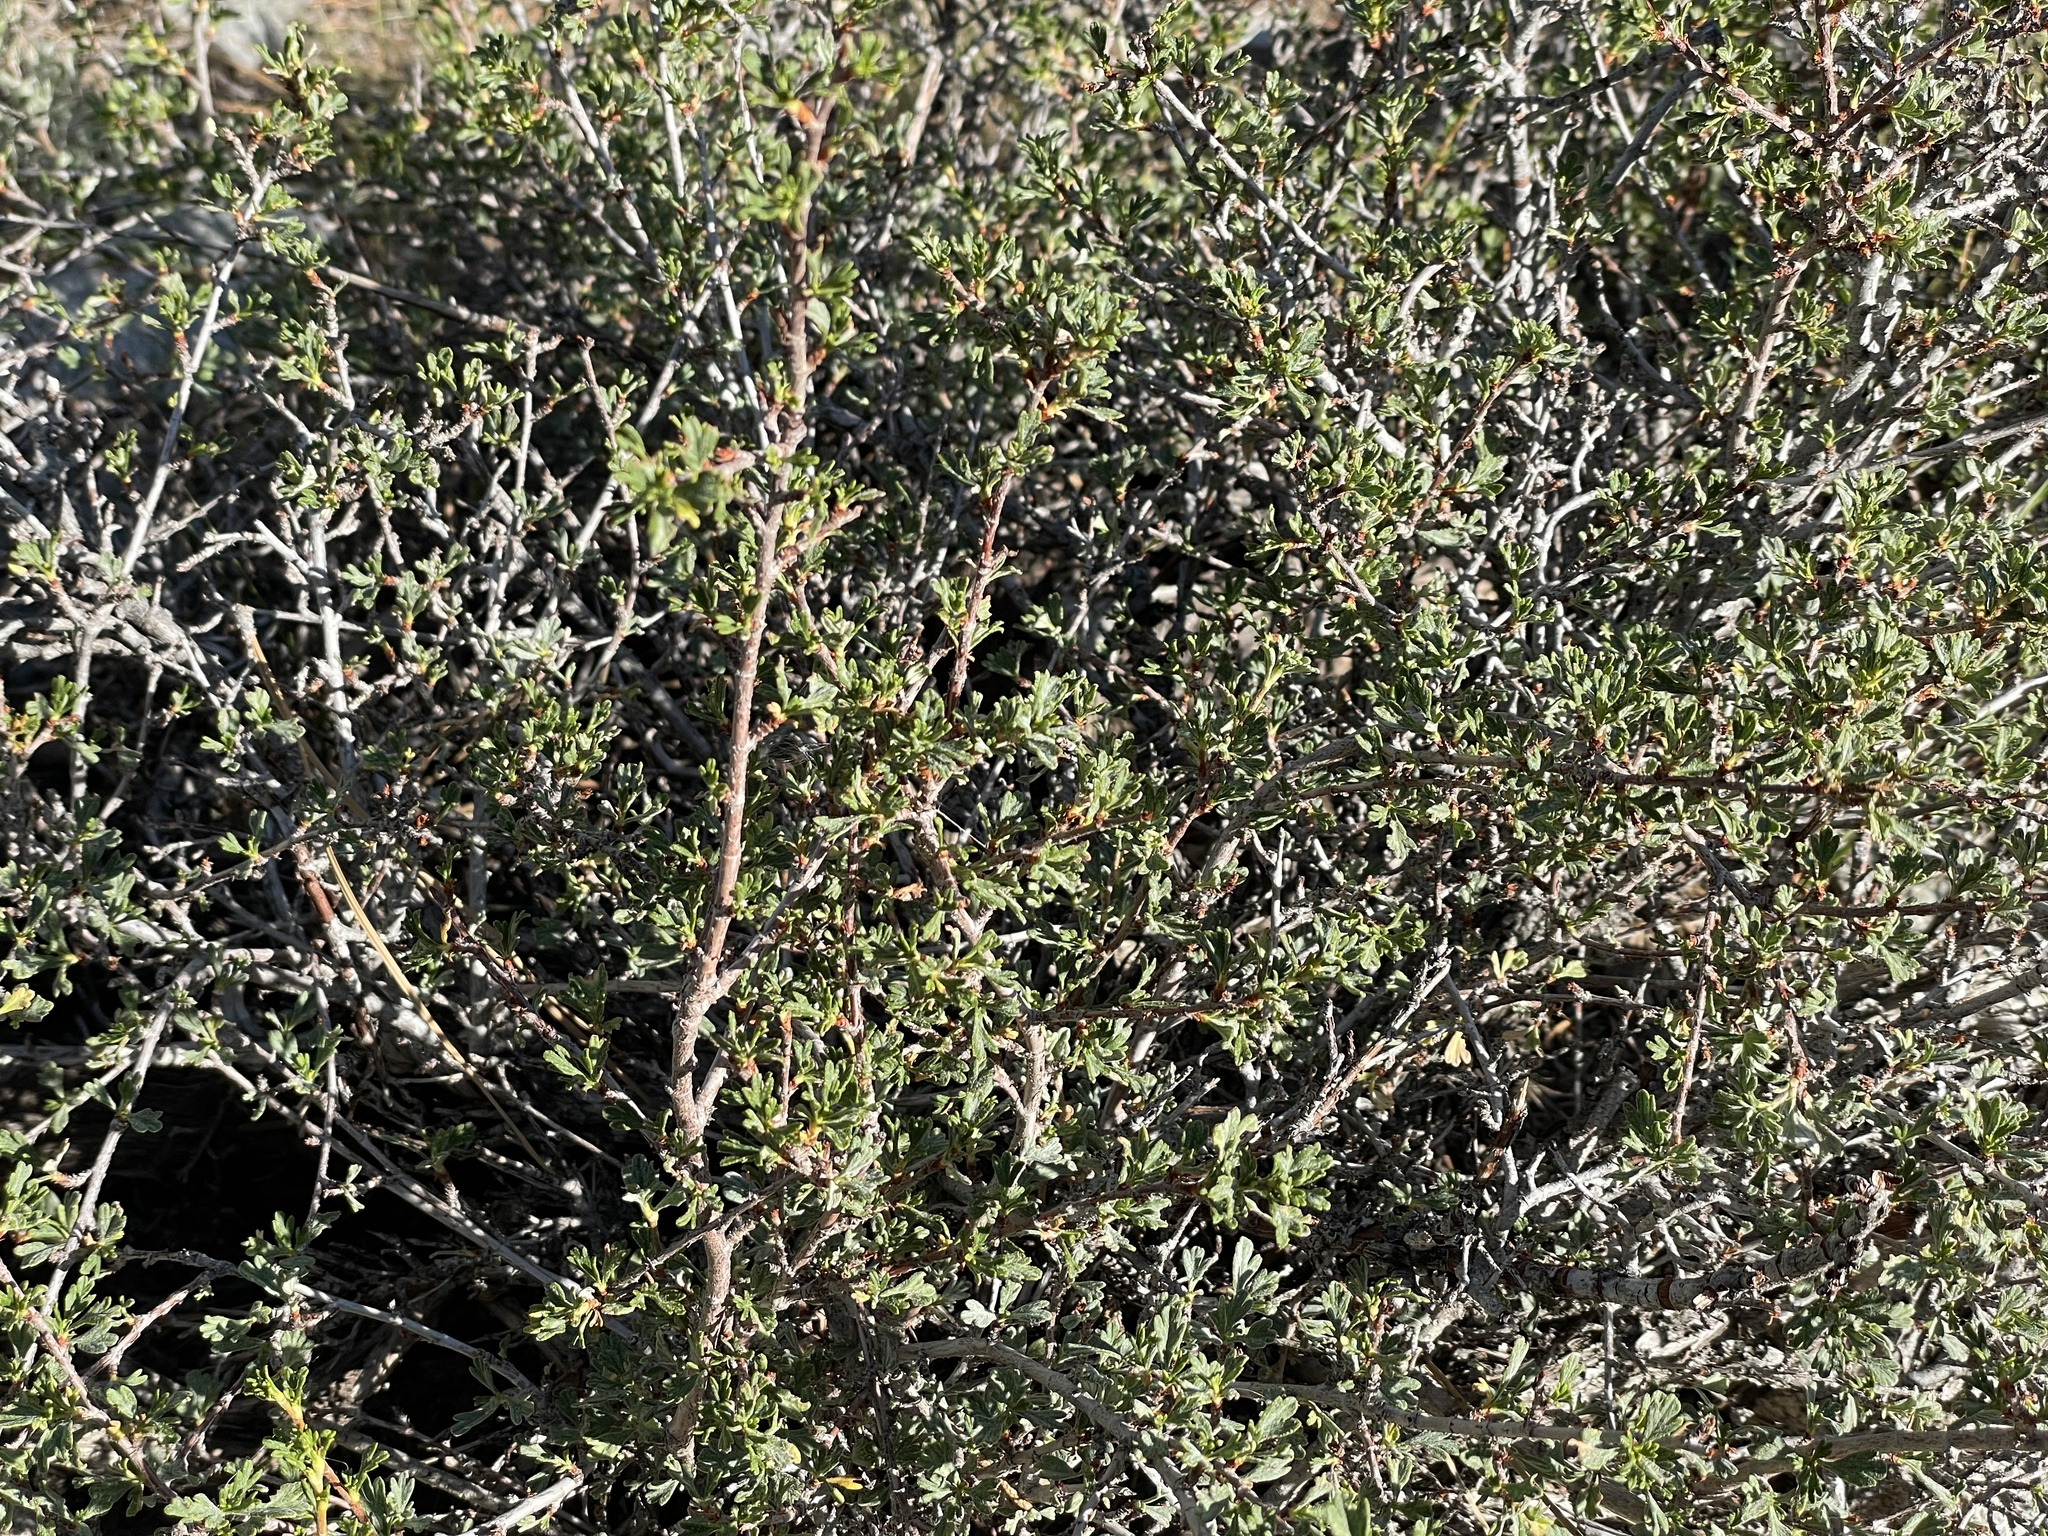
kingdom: Plantae
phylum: Tracheophyta
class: Magnoliopsida
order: Rosales
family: Rosaceae
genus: Purshia
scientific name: Purshia tridentata
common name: Antelope bitterbrush
